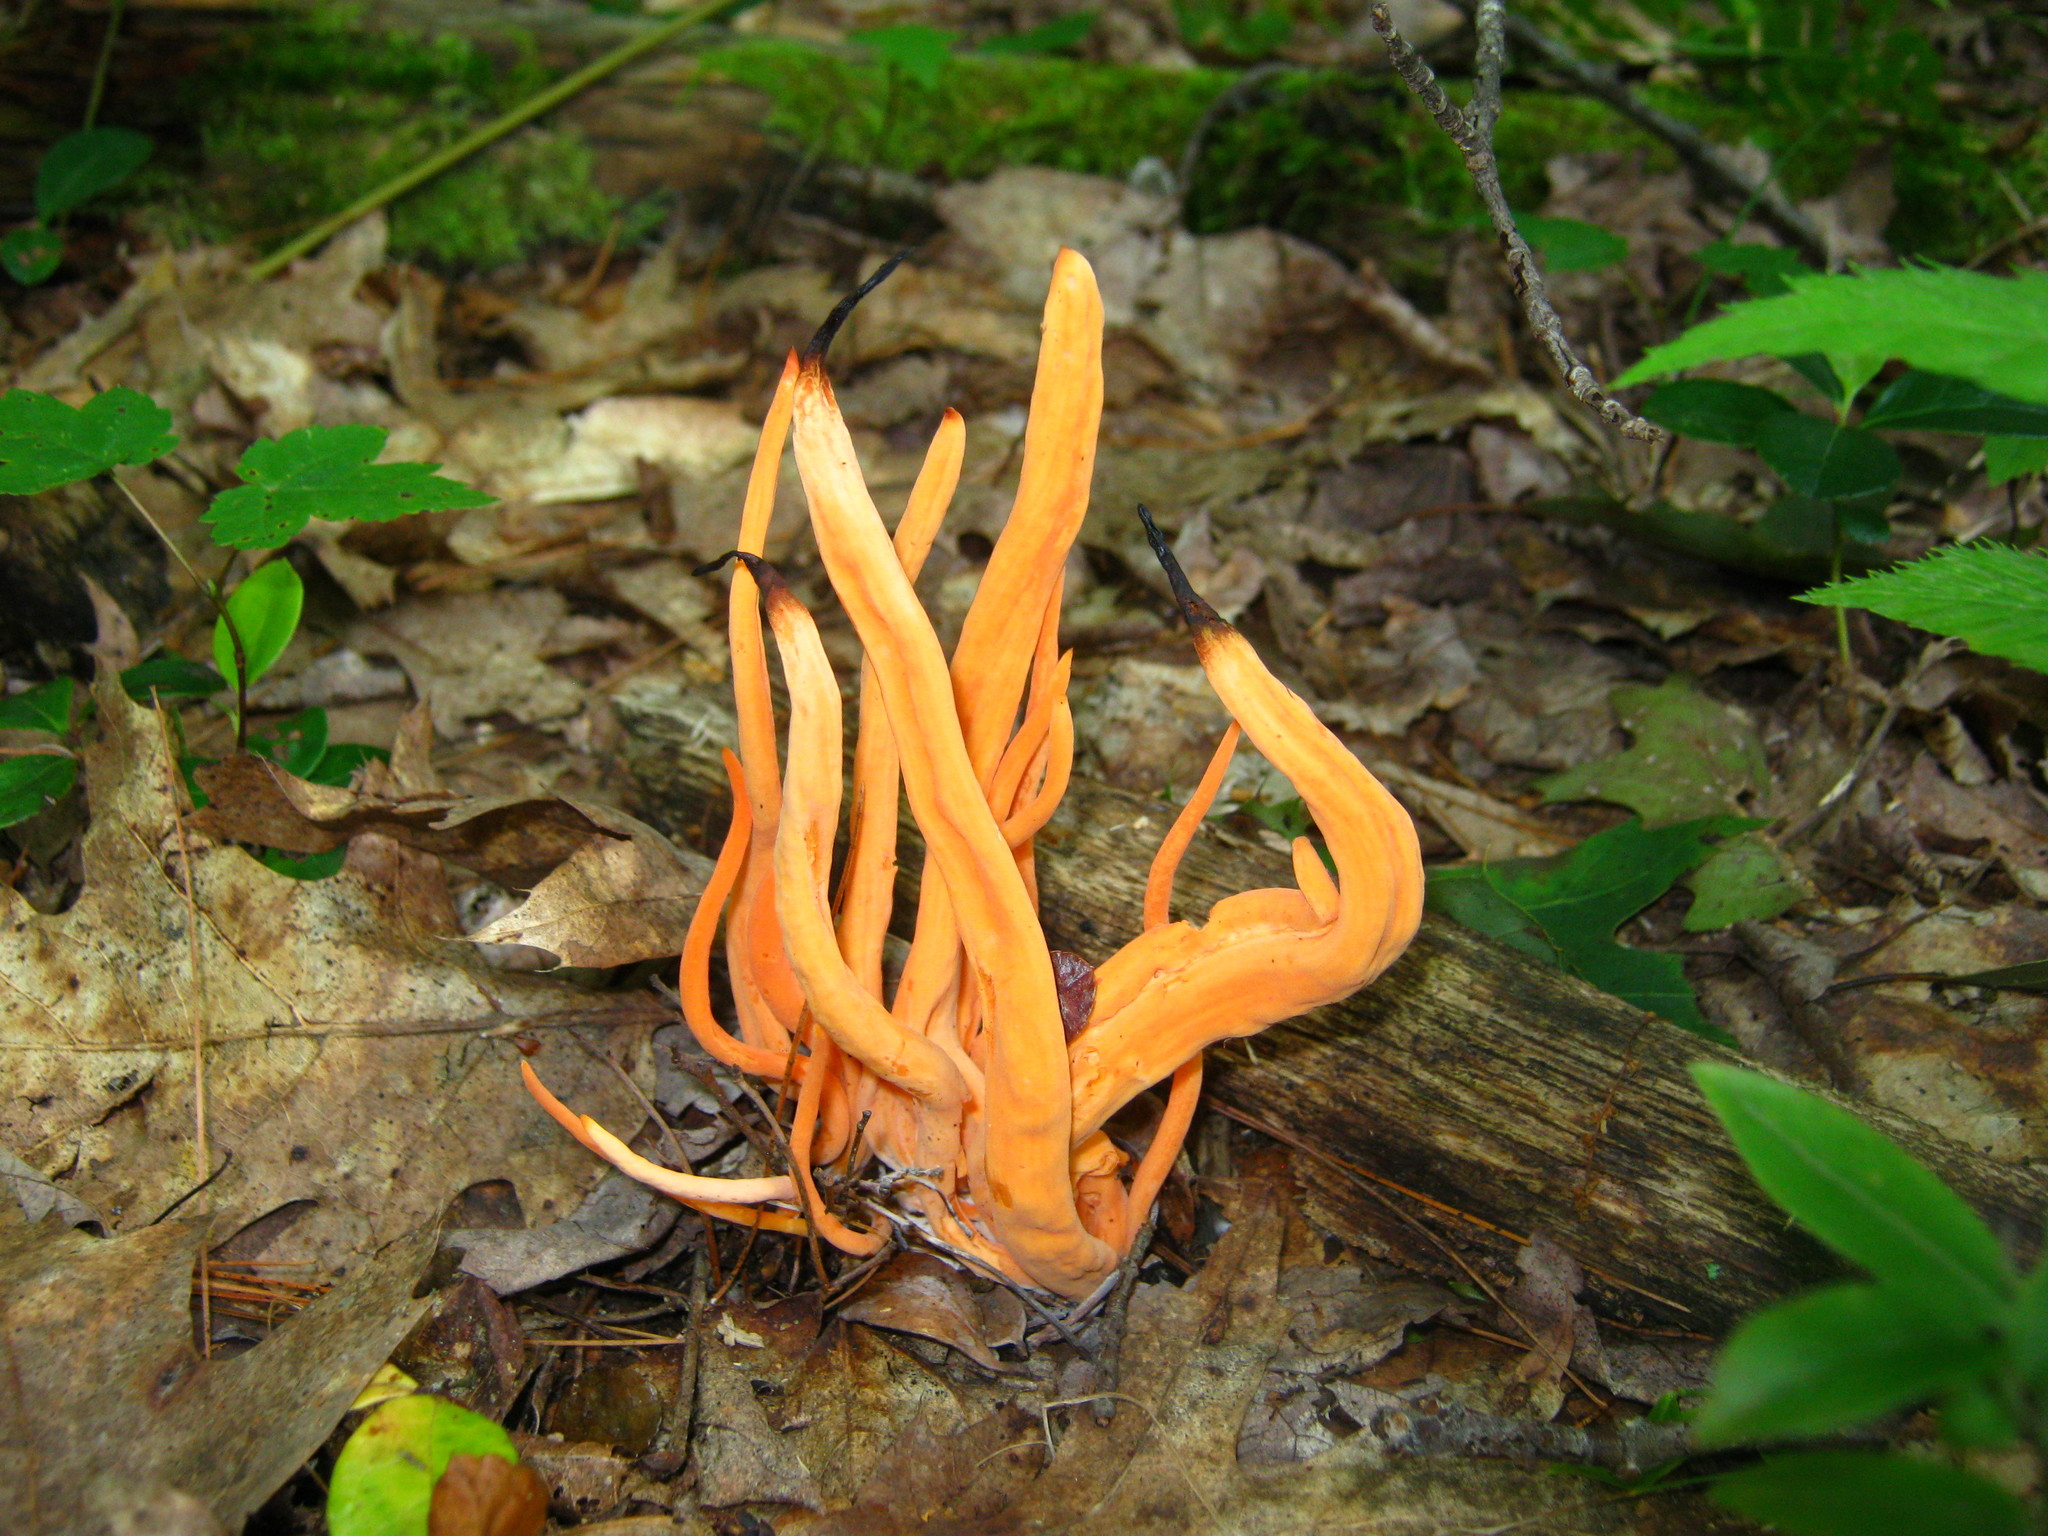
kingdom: Fungi
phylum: Basidiomycota
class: Agaricomycetes
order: Agaricales
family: Clavariaceae
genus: Clavulinopsis
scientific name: Clavulinopsis aurantiocinnabarina
